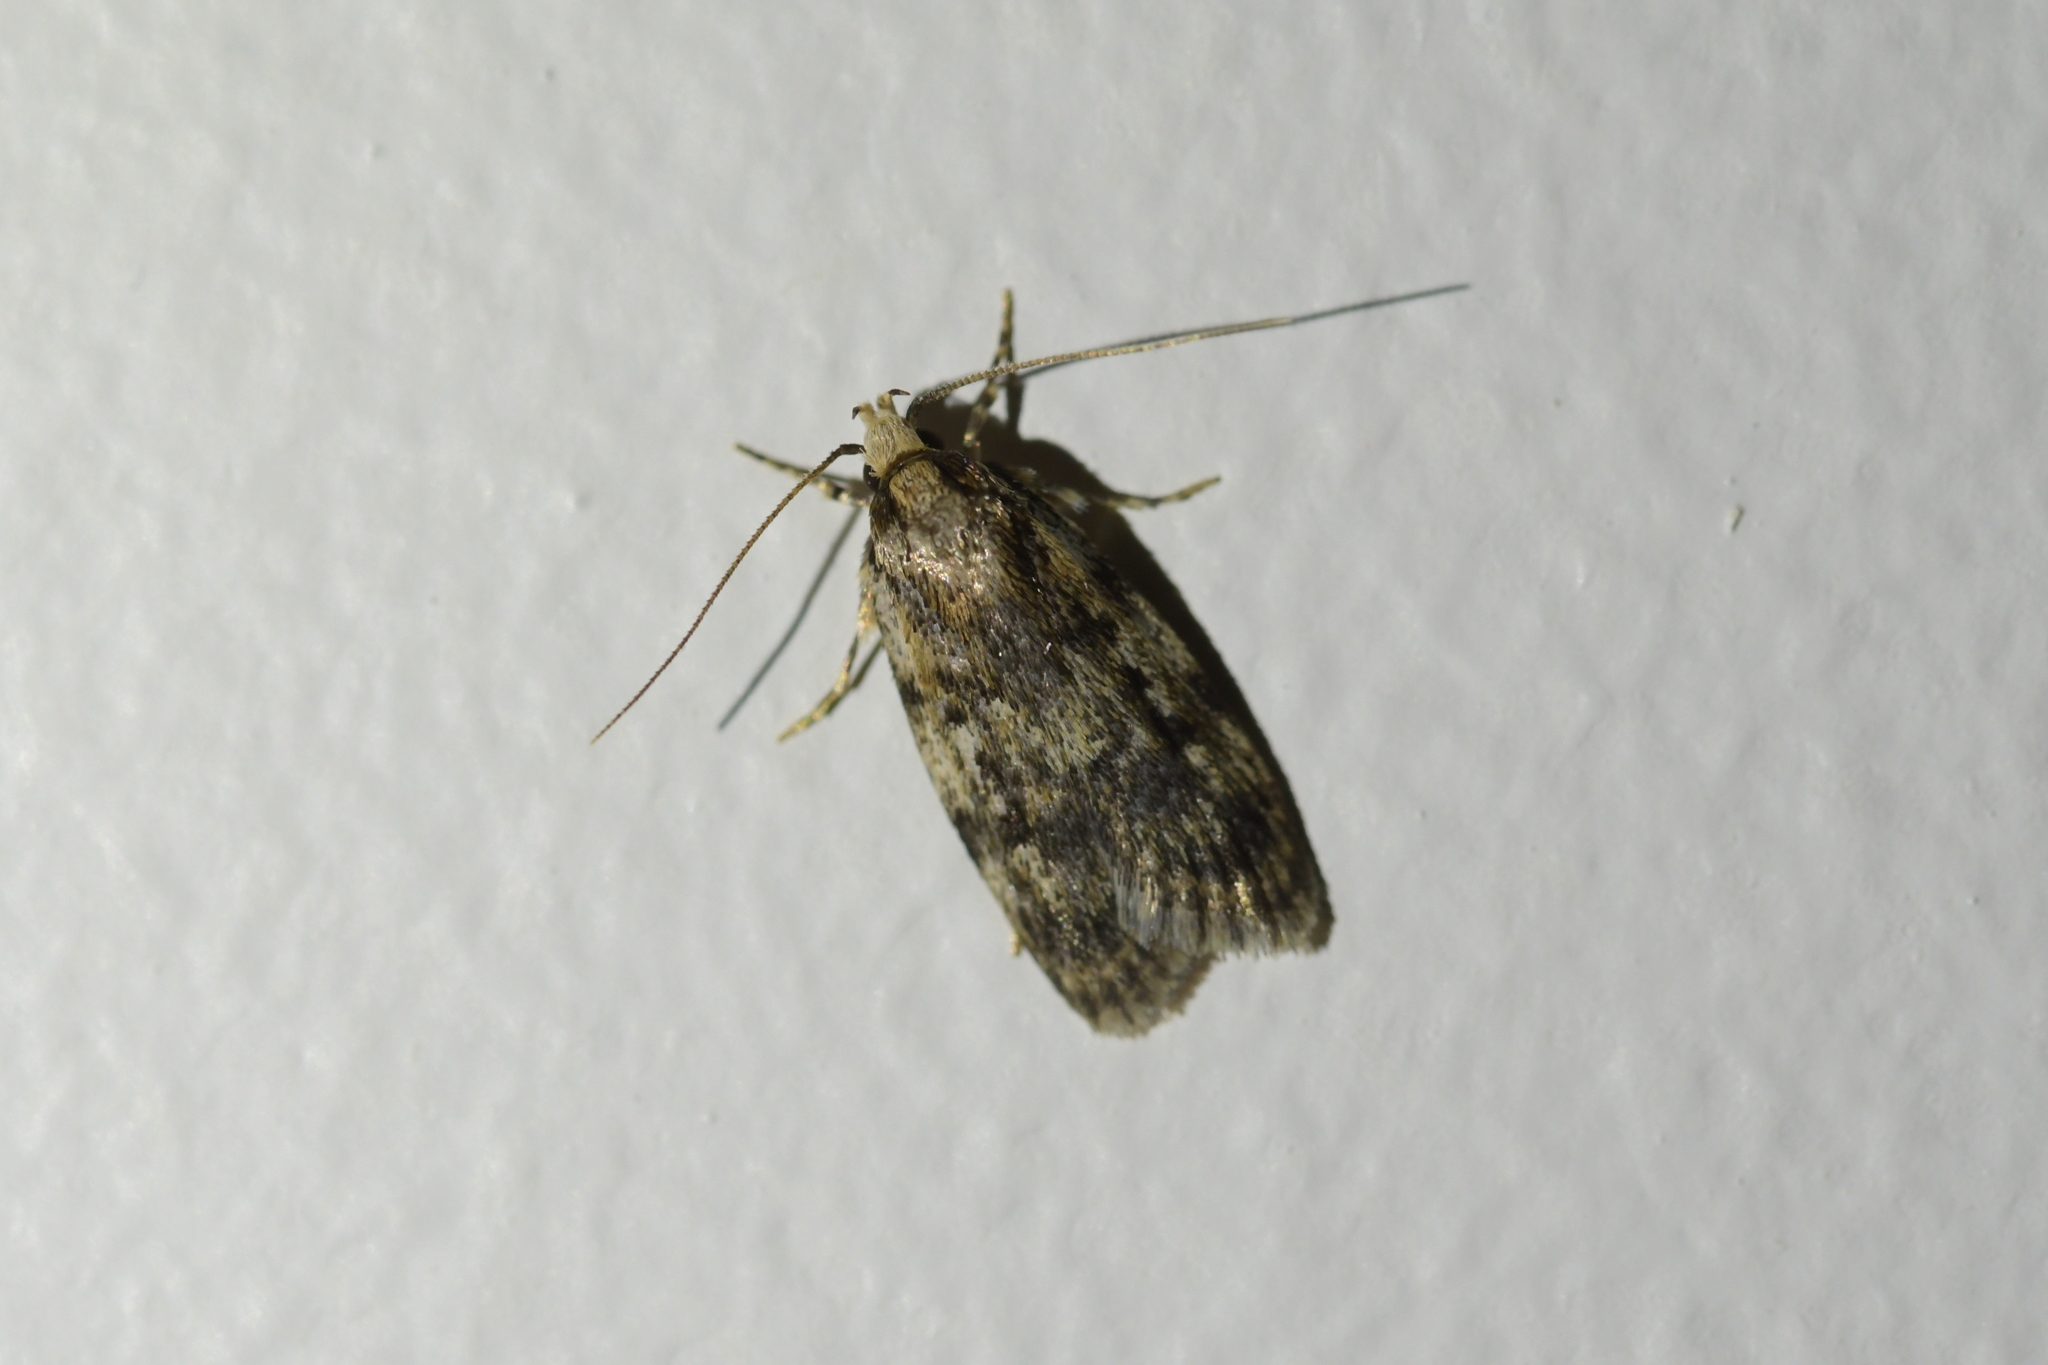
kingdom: Animalia
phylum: Arthropoda
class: Insecta
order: Lepidoptera
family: Oecophoridae
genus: Barea
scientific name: Barea exarcha
